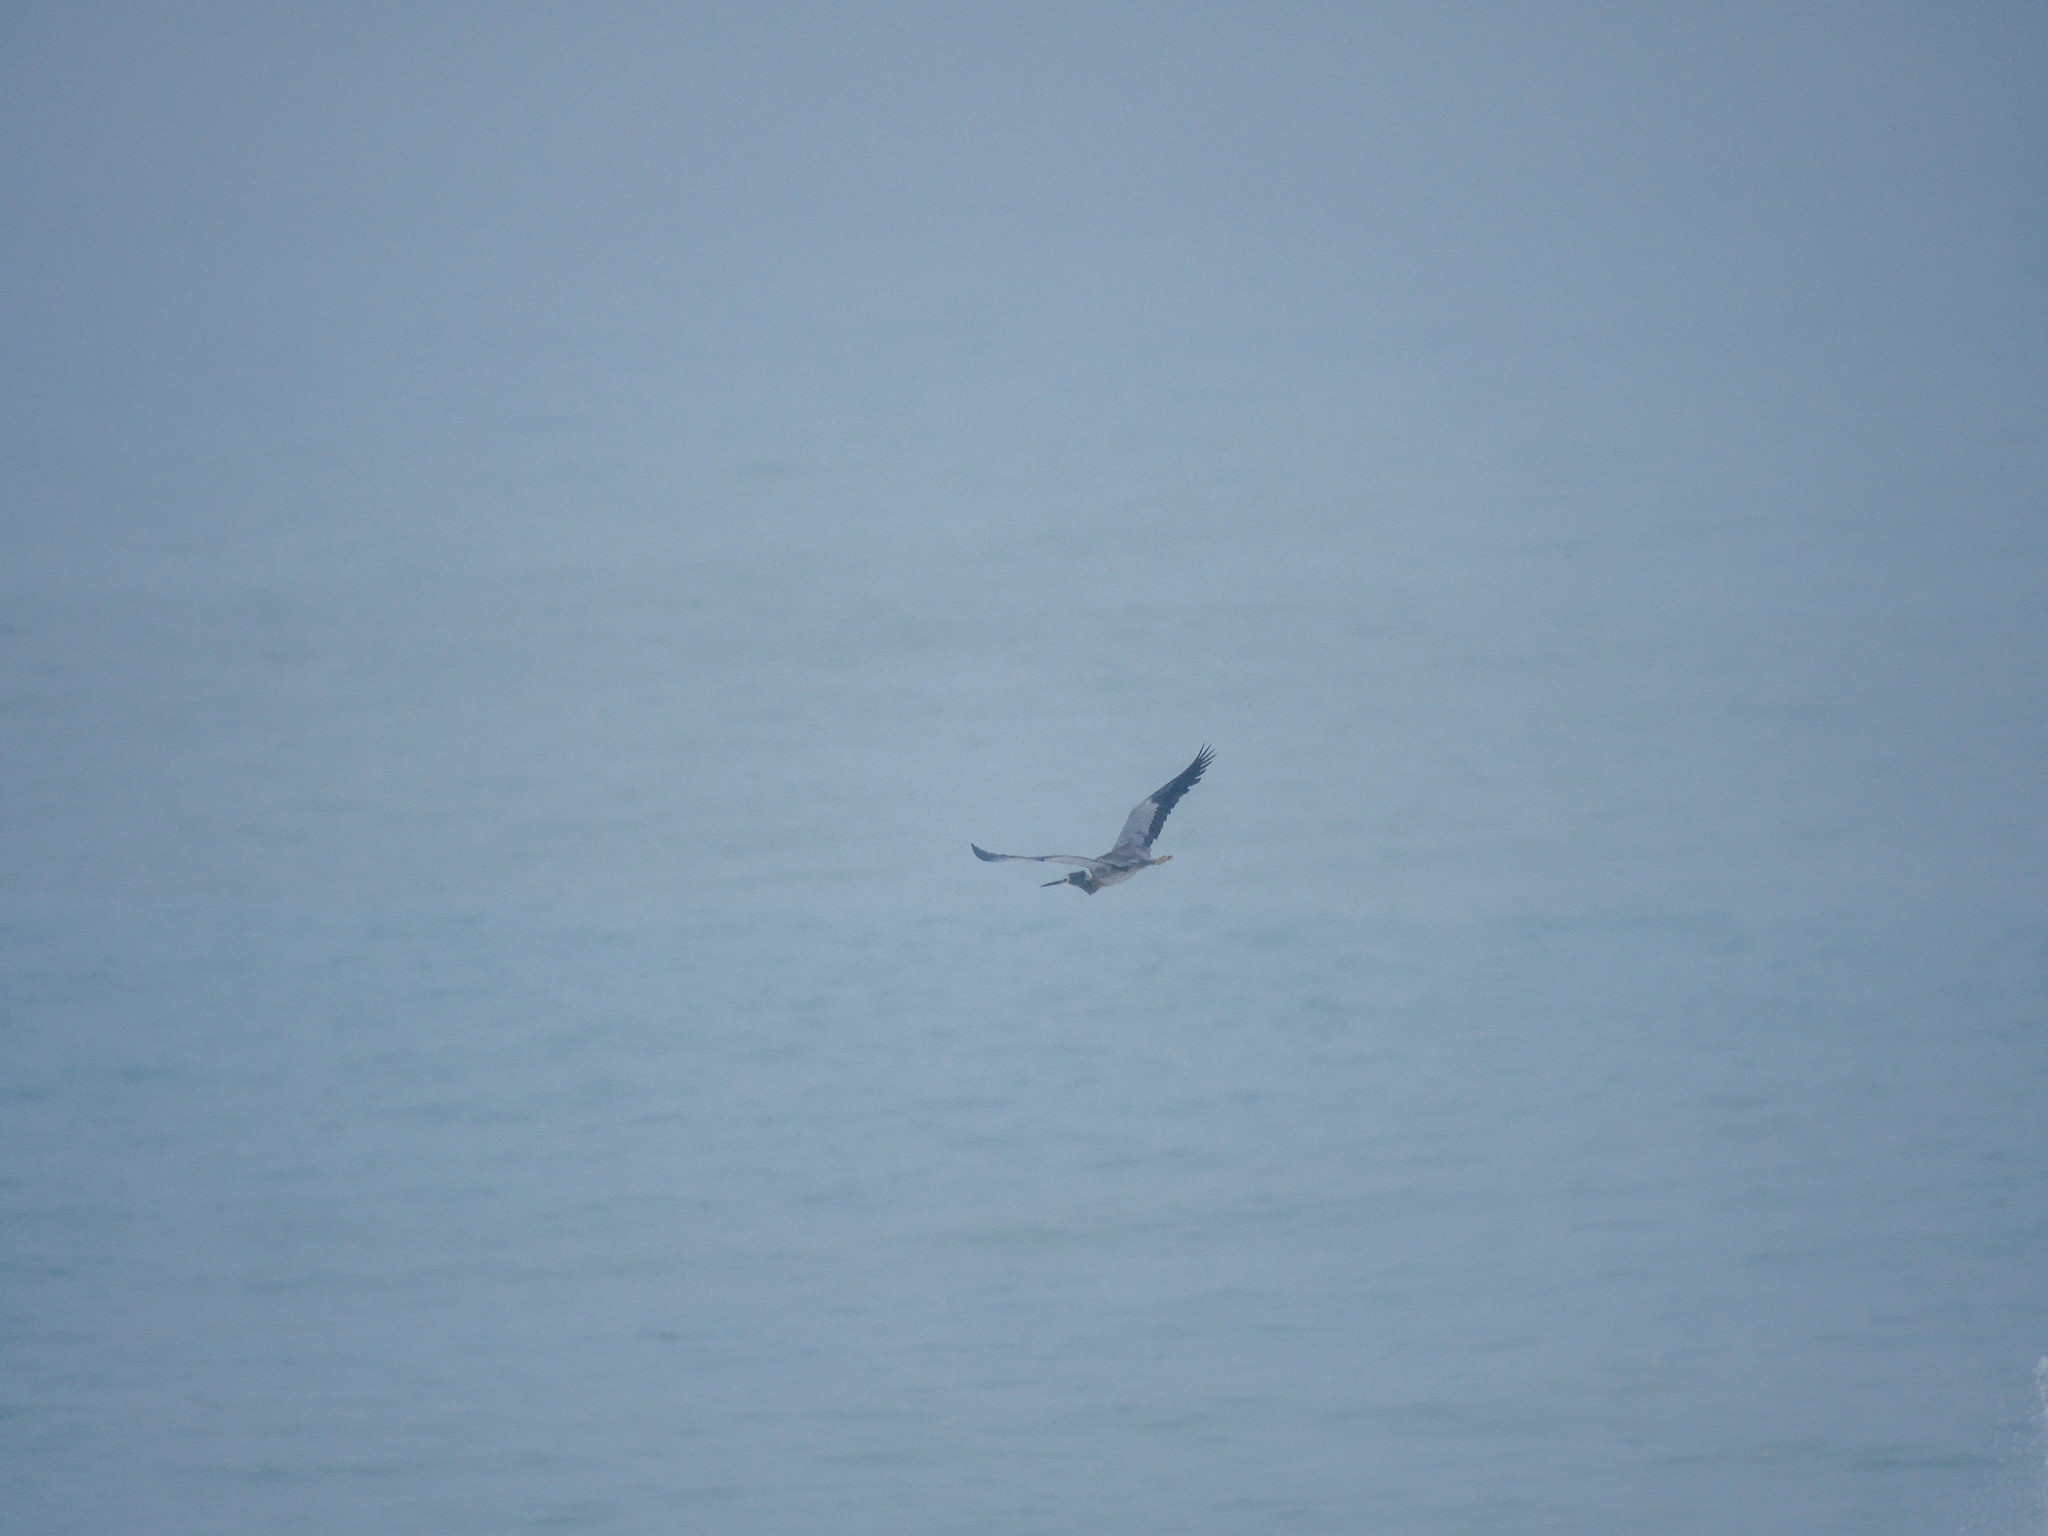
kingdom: Animalia
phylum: Chordata
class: Aves
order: Pelecaniformes
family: Ardeidae
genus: Egretta
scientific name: Egretta novaehollandiae
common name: White-faced heron
